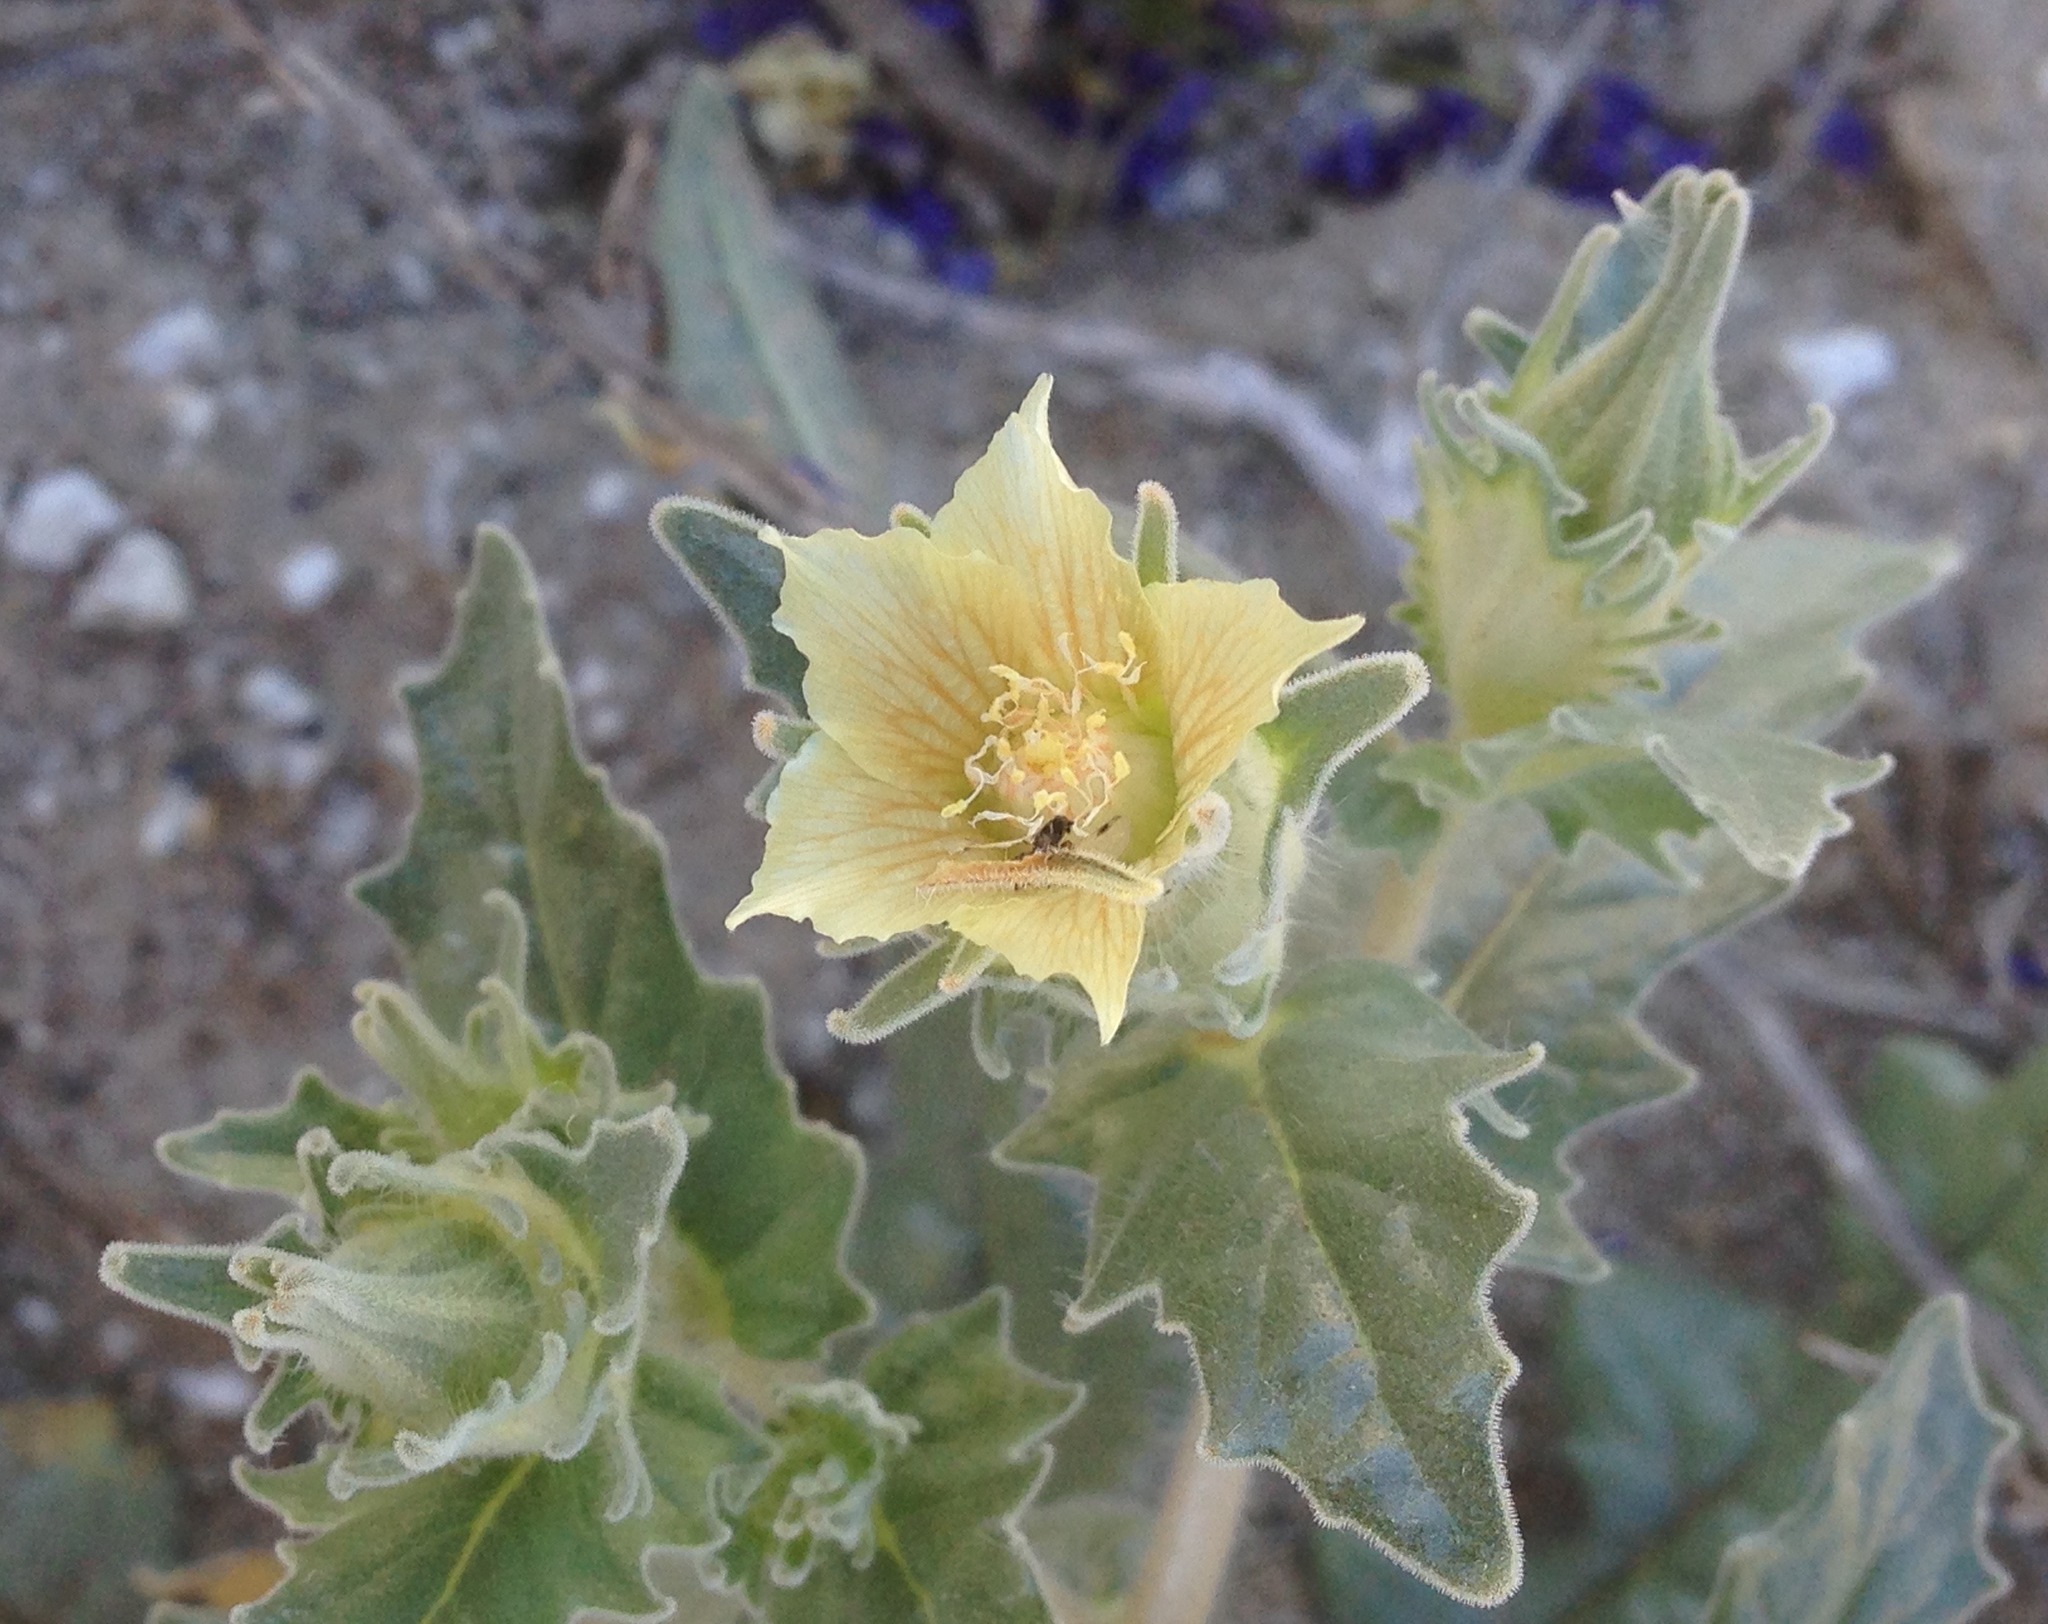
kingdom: Plantae
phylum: Tracheophyta
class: Magnoliopsida
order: Cornales
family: Loasaceae
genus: Mentzelia
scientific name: Mentzelia involucrata
